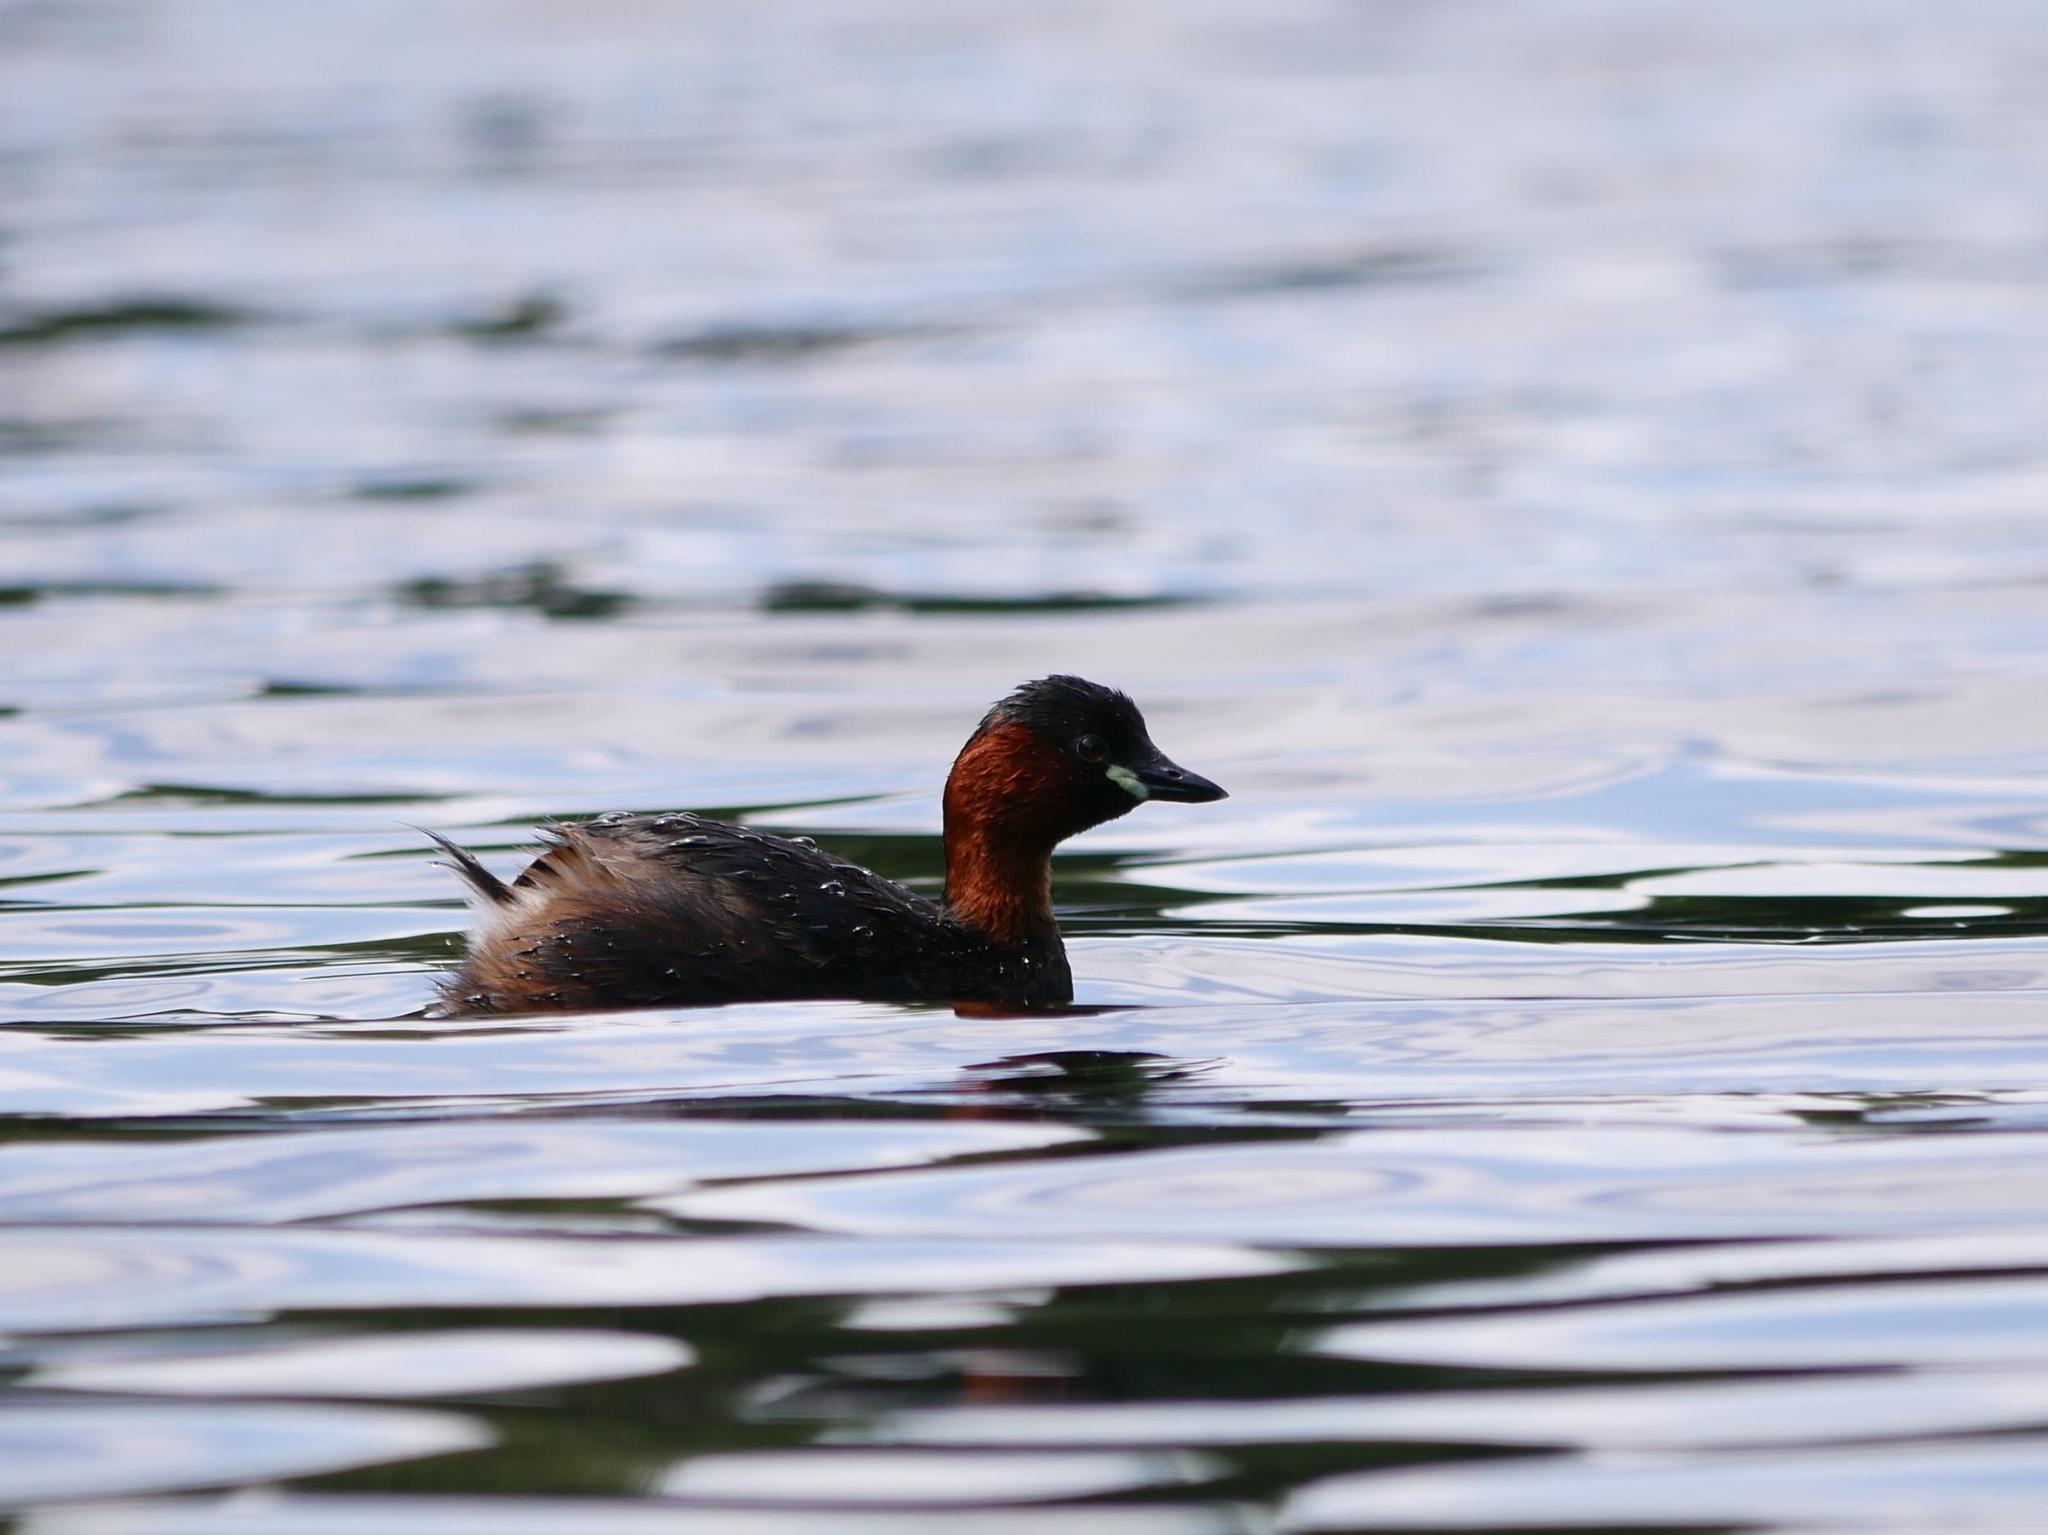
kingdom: Animalia
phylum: Chordata
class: Aves
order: Podicipediformes
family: Podicipedidae
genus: Tachybaptus
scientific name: Tachybaptus ruficollis
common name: Little grebe
